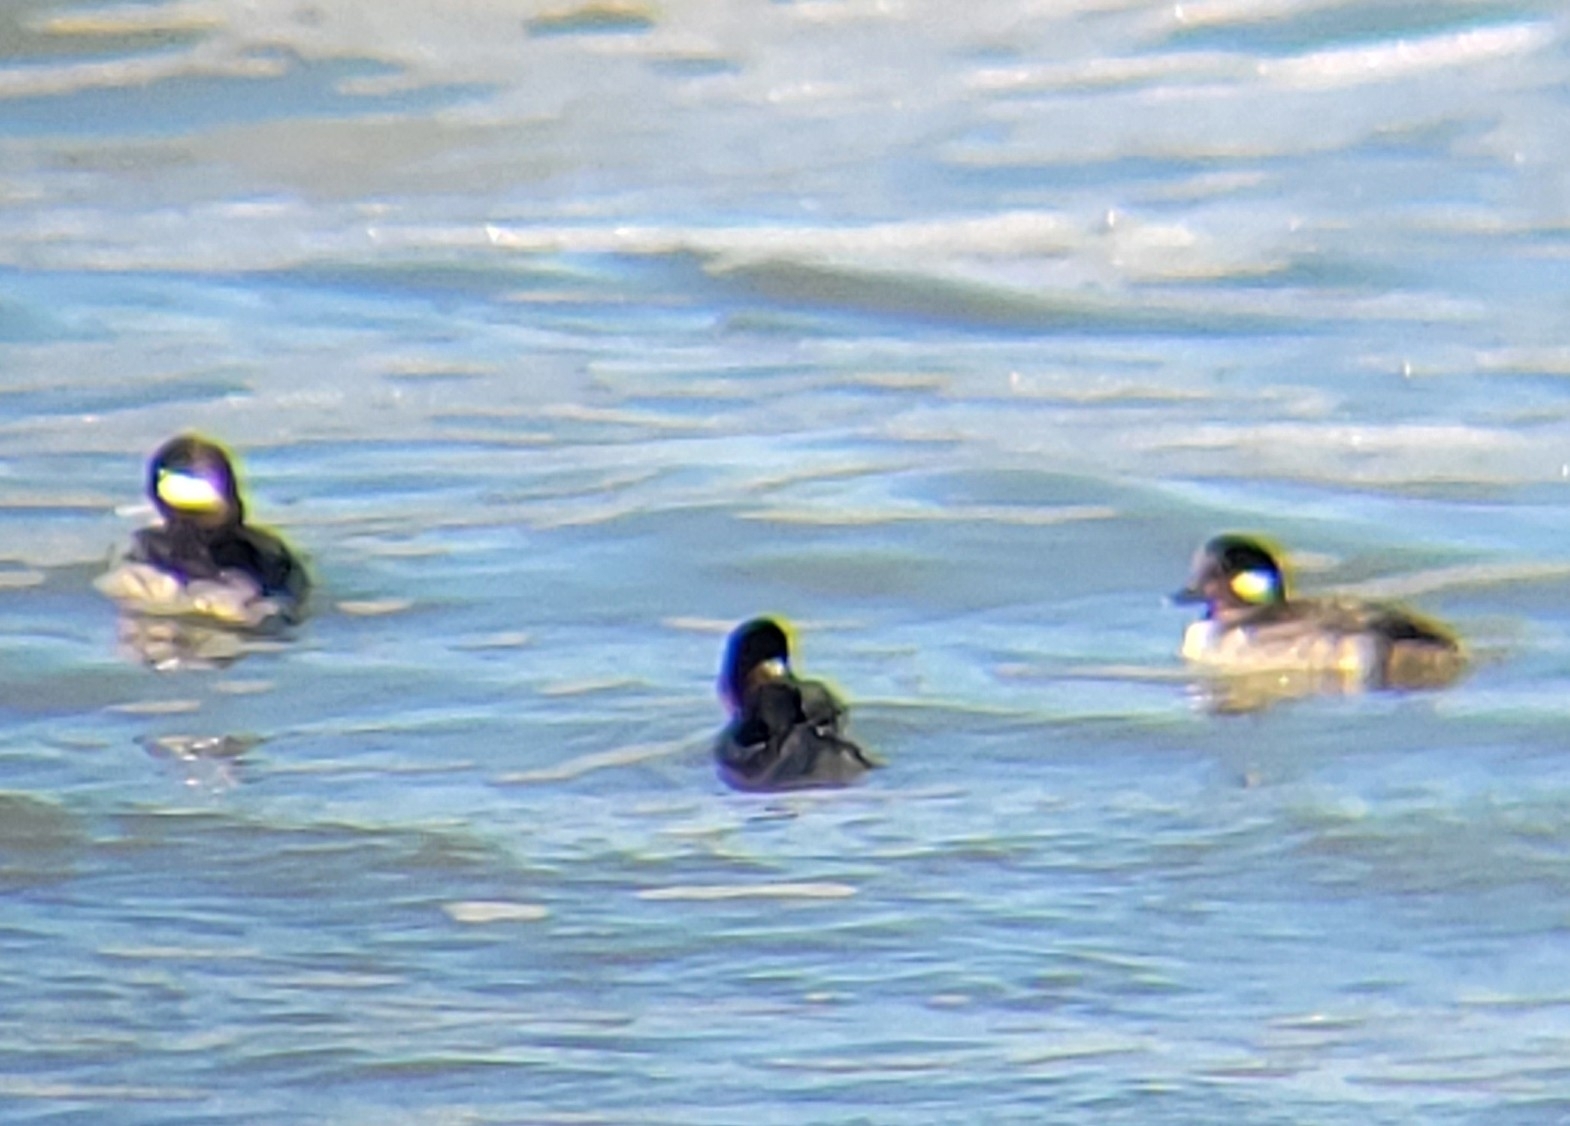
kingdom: Animalia
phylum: Chordata
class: Aves
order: Anseriformes
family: Anatidae
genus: Bucephala
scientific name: Bucephala albeola
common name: Bufflehead
